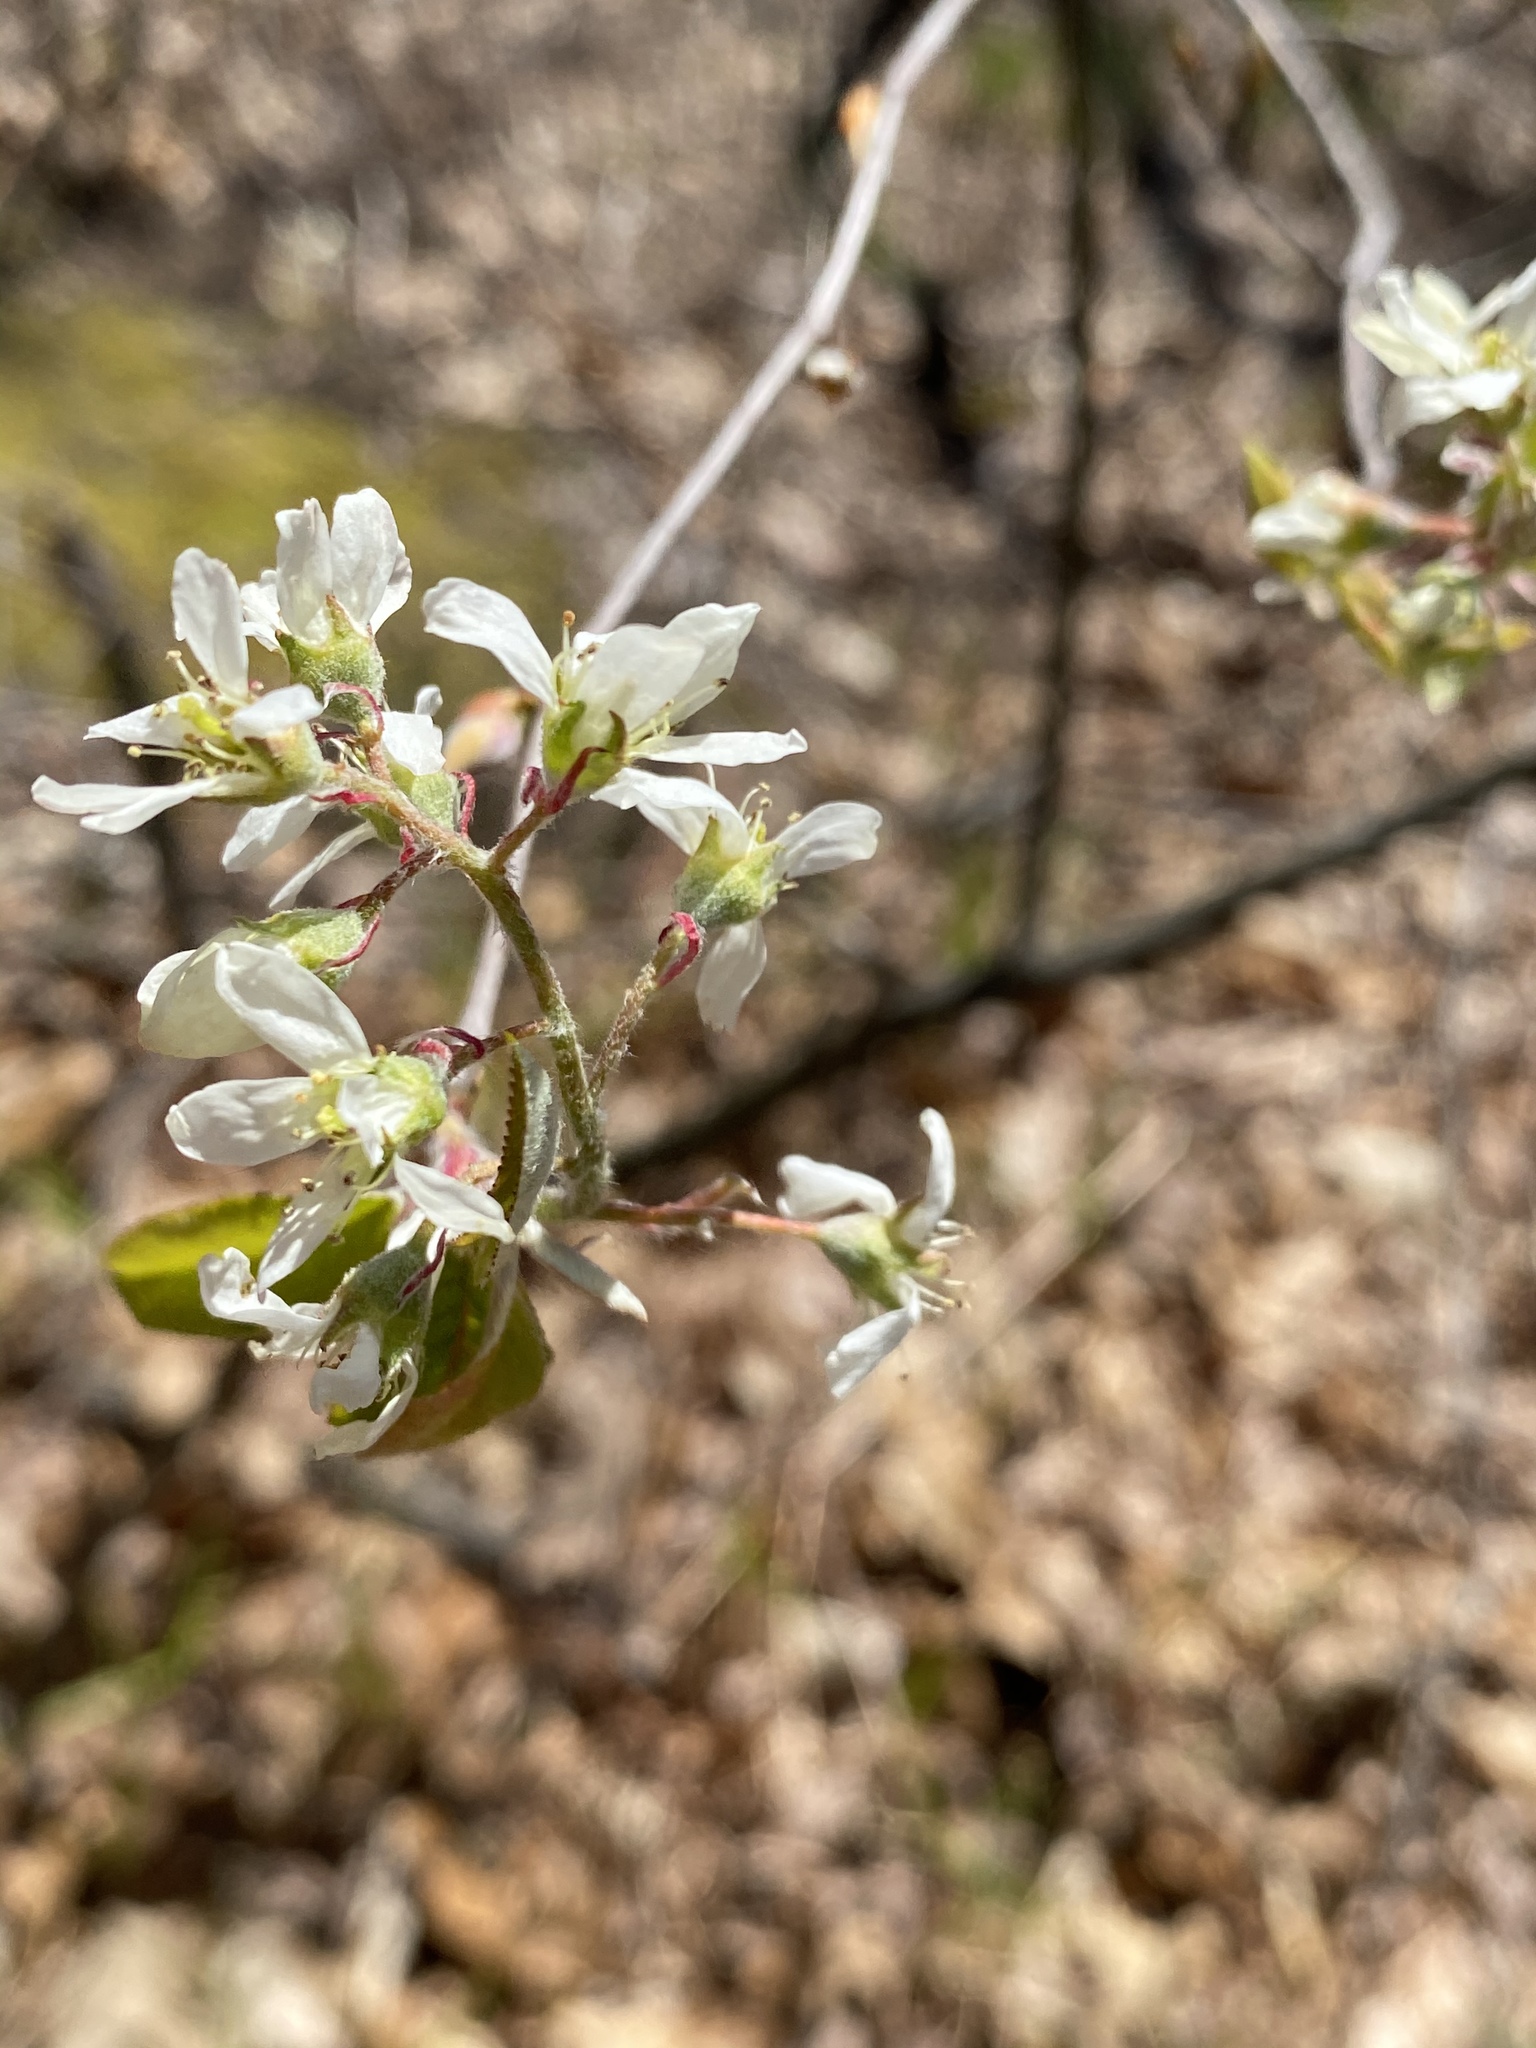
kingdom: Plantae
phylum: Tracheophyta
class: Magnoliopsida
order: Rosales
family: Rosaceae
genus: Amelanchier
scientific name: Amelanchier arborea
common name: Downy serviceberry
